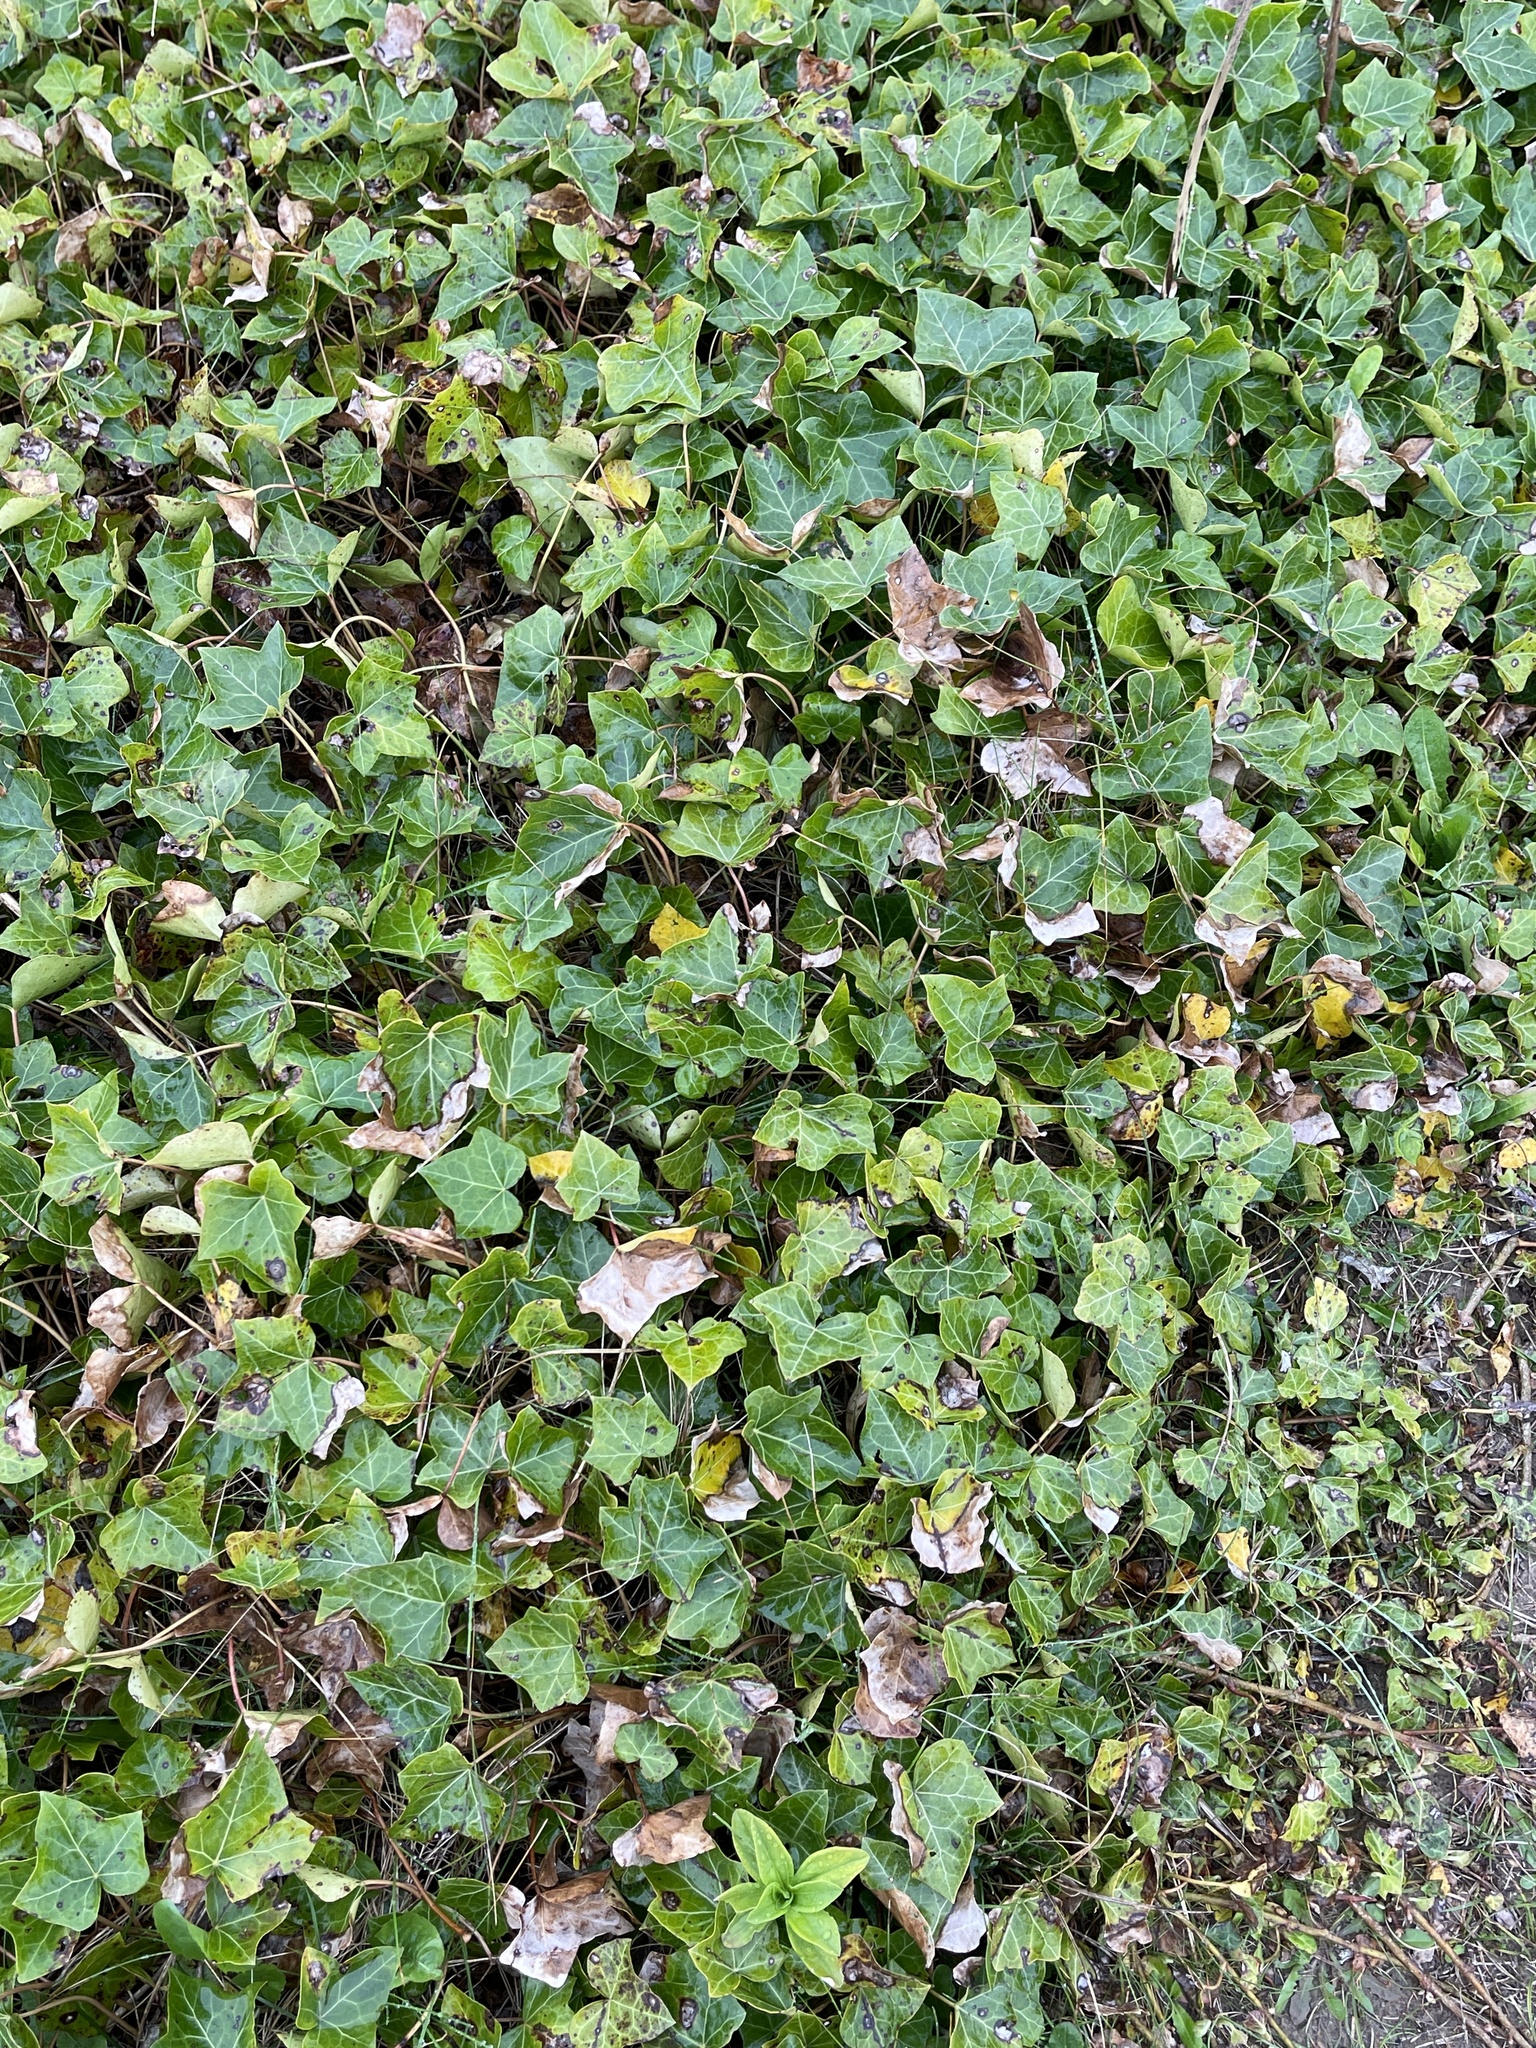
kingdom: Plantae
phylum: Tracheophyta
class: Magnoliopsida
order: Apiales
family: Araliaceae
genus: Hedera
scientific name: Hedera helix
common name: Ivy
